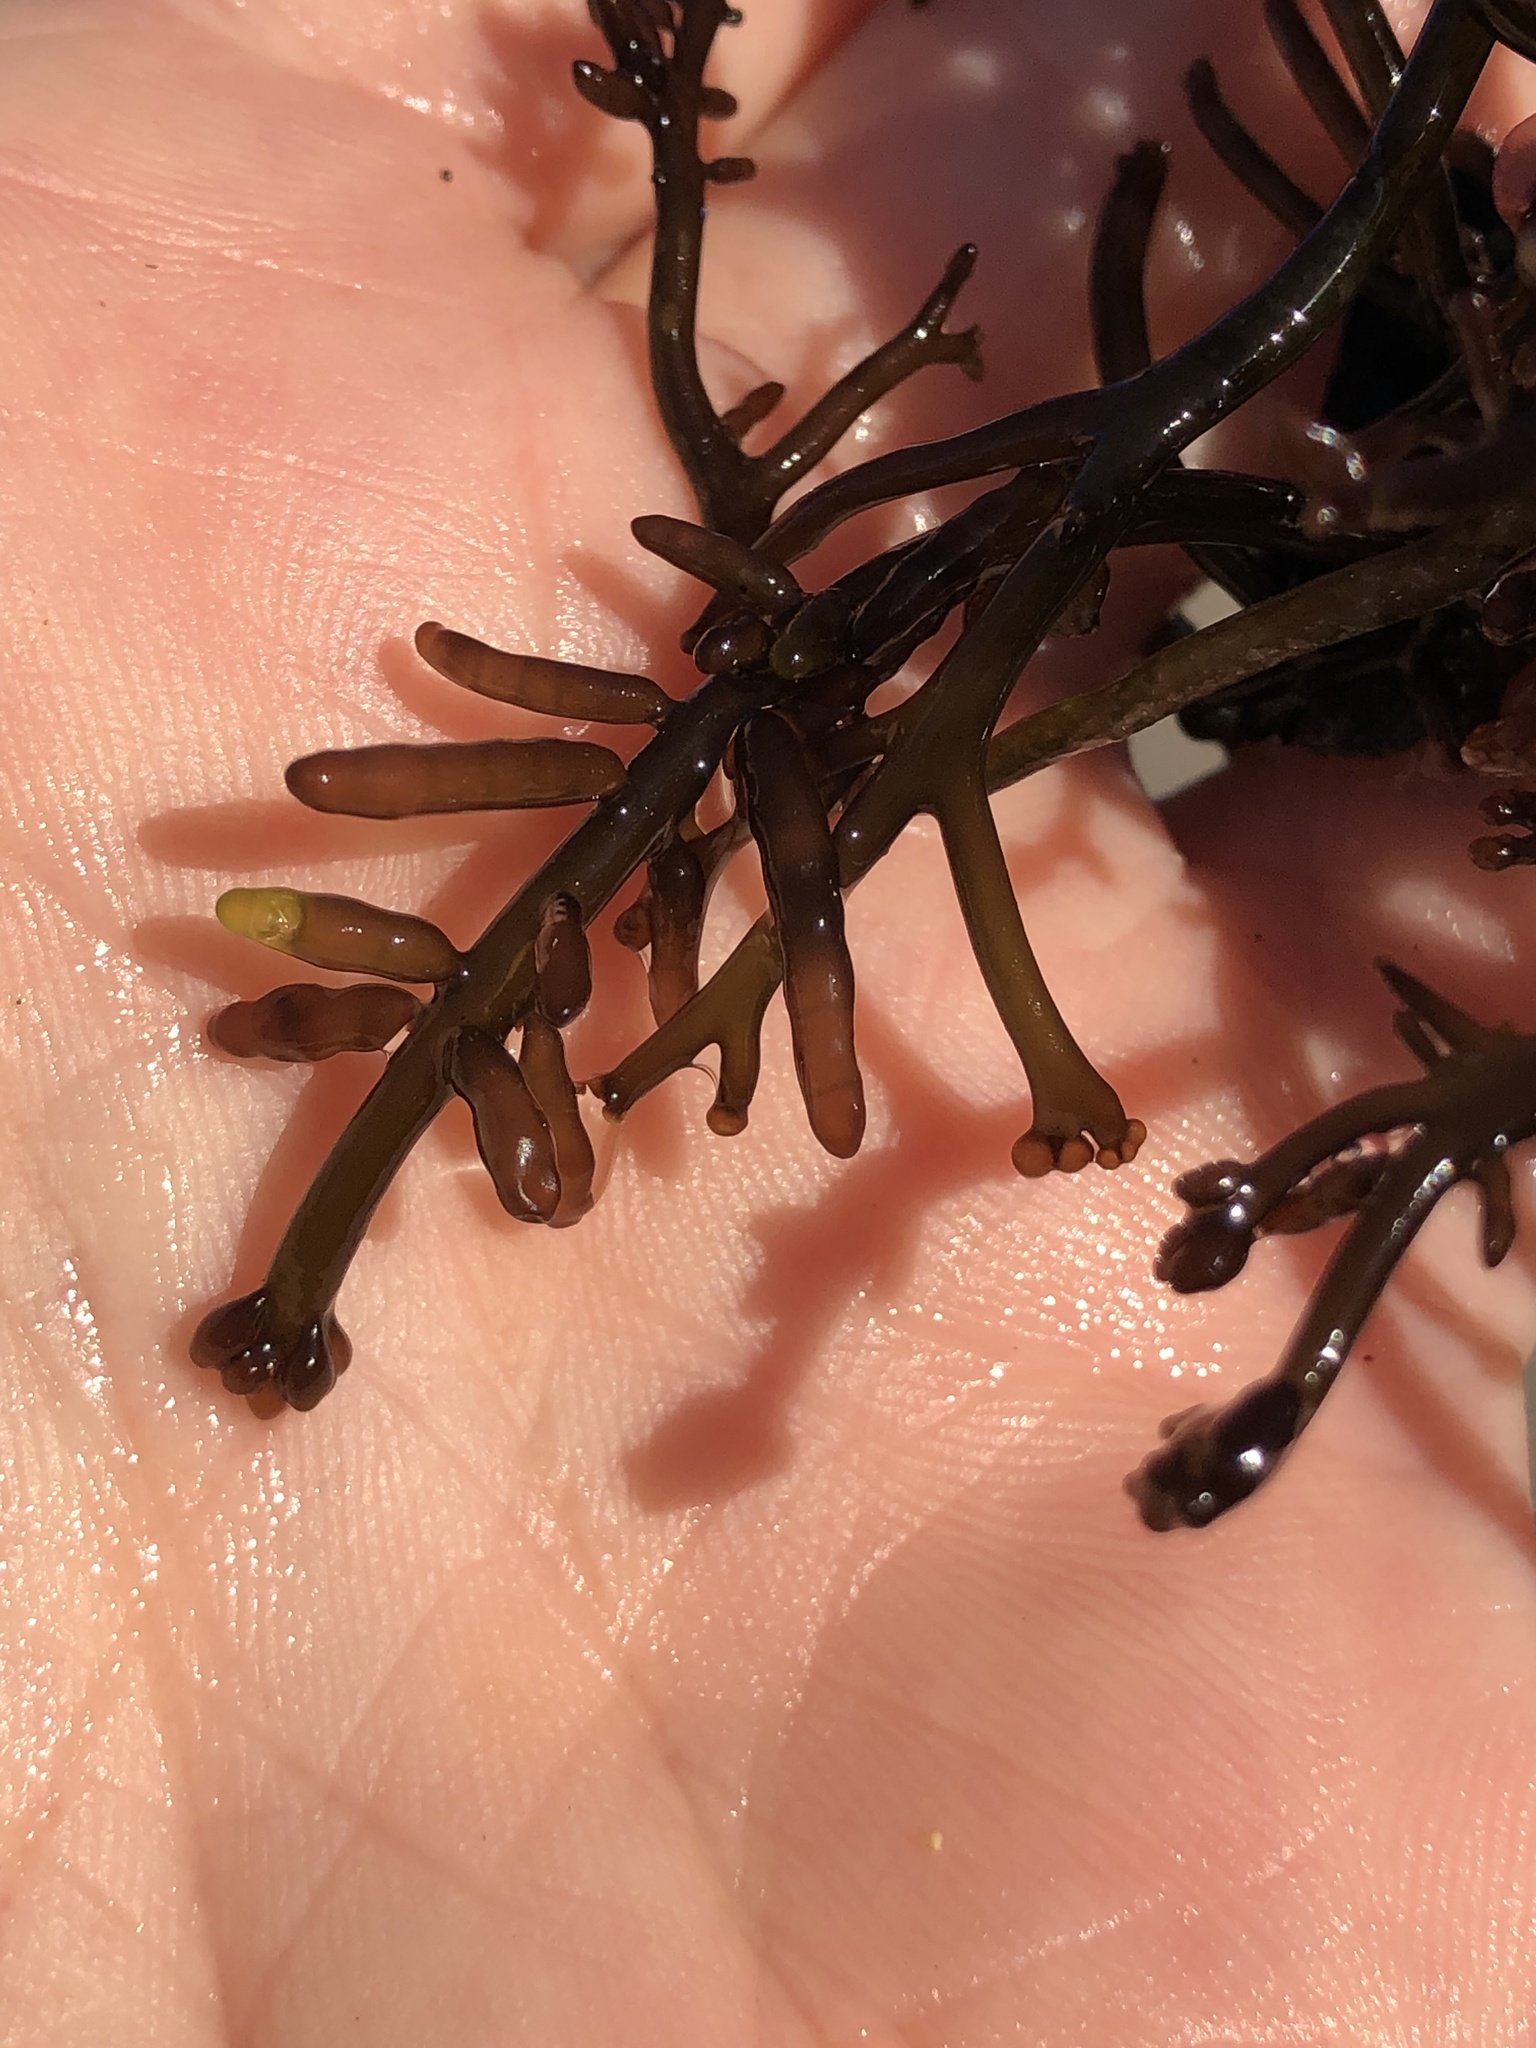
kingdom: Plantae
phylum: Rhodophyta
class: Florideophyceae
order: Rhodymeniales
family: Champiaceae
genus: Neogastroclonium
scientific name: Neogastroclonium subarticulatum
